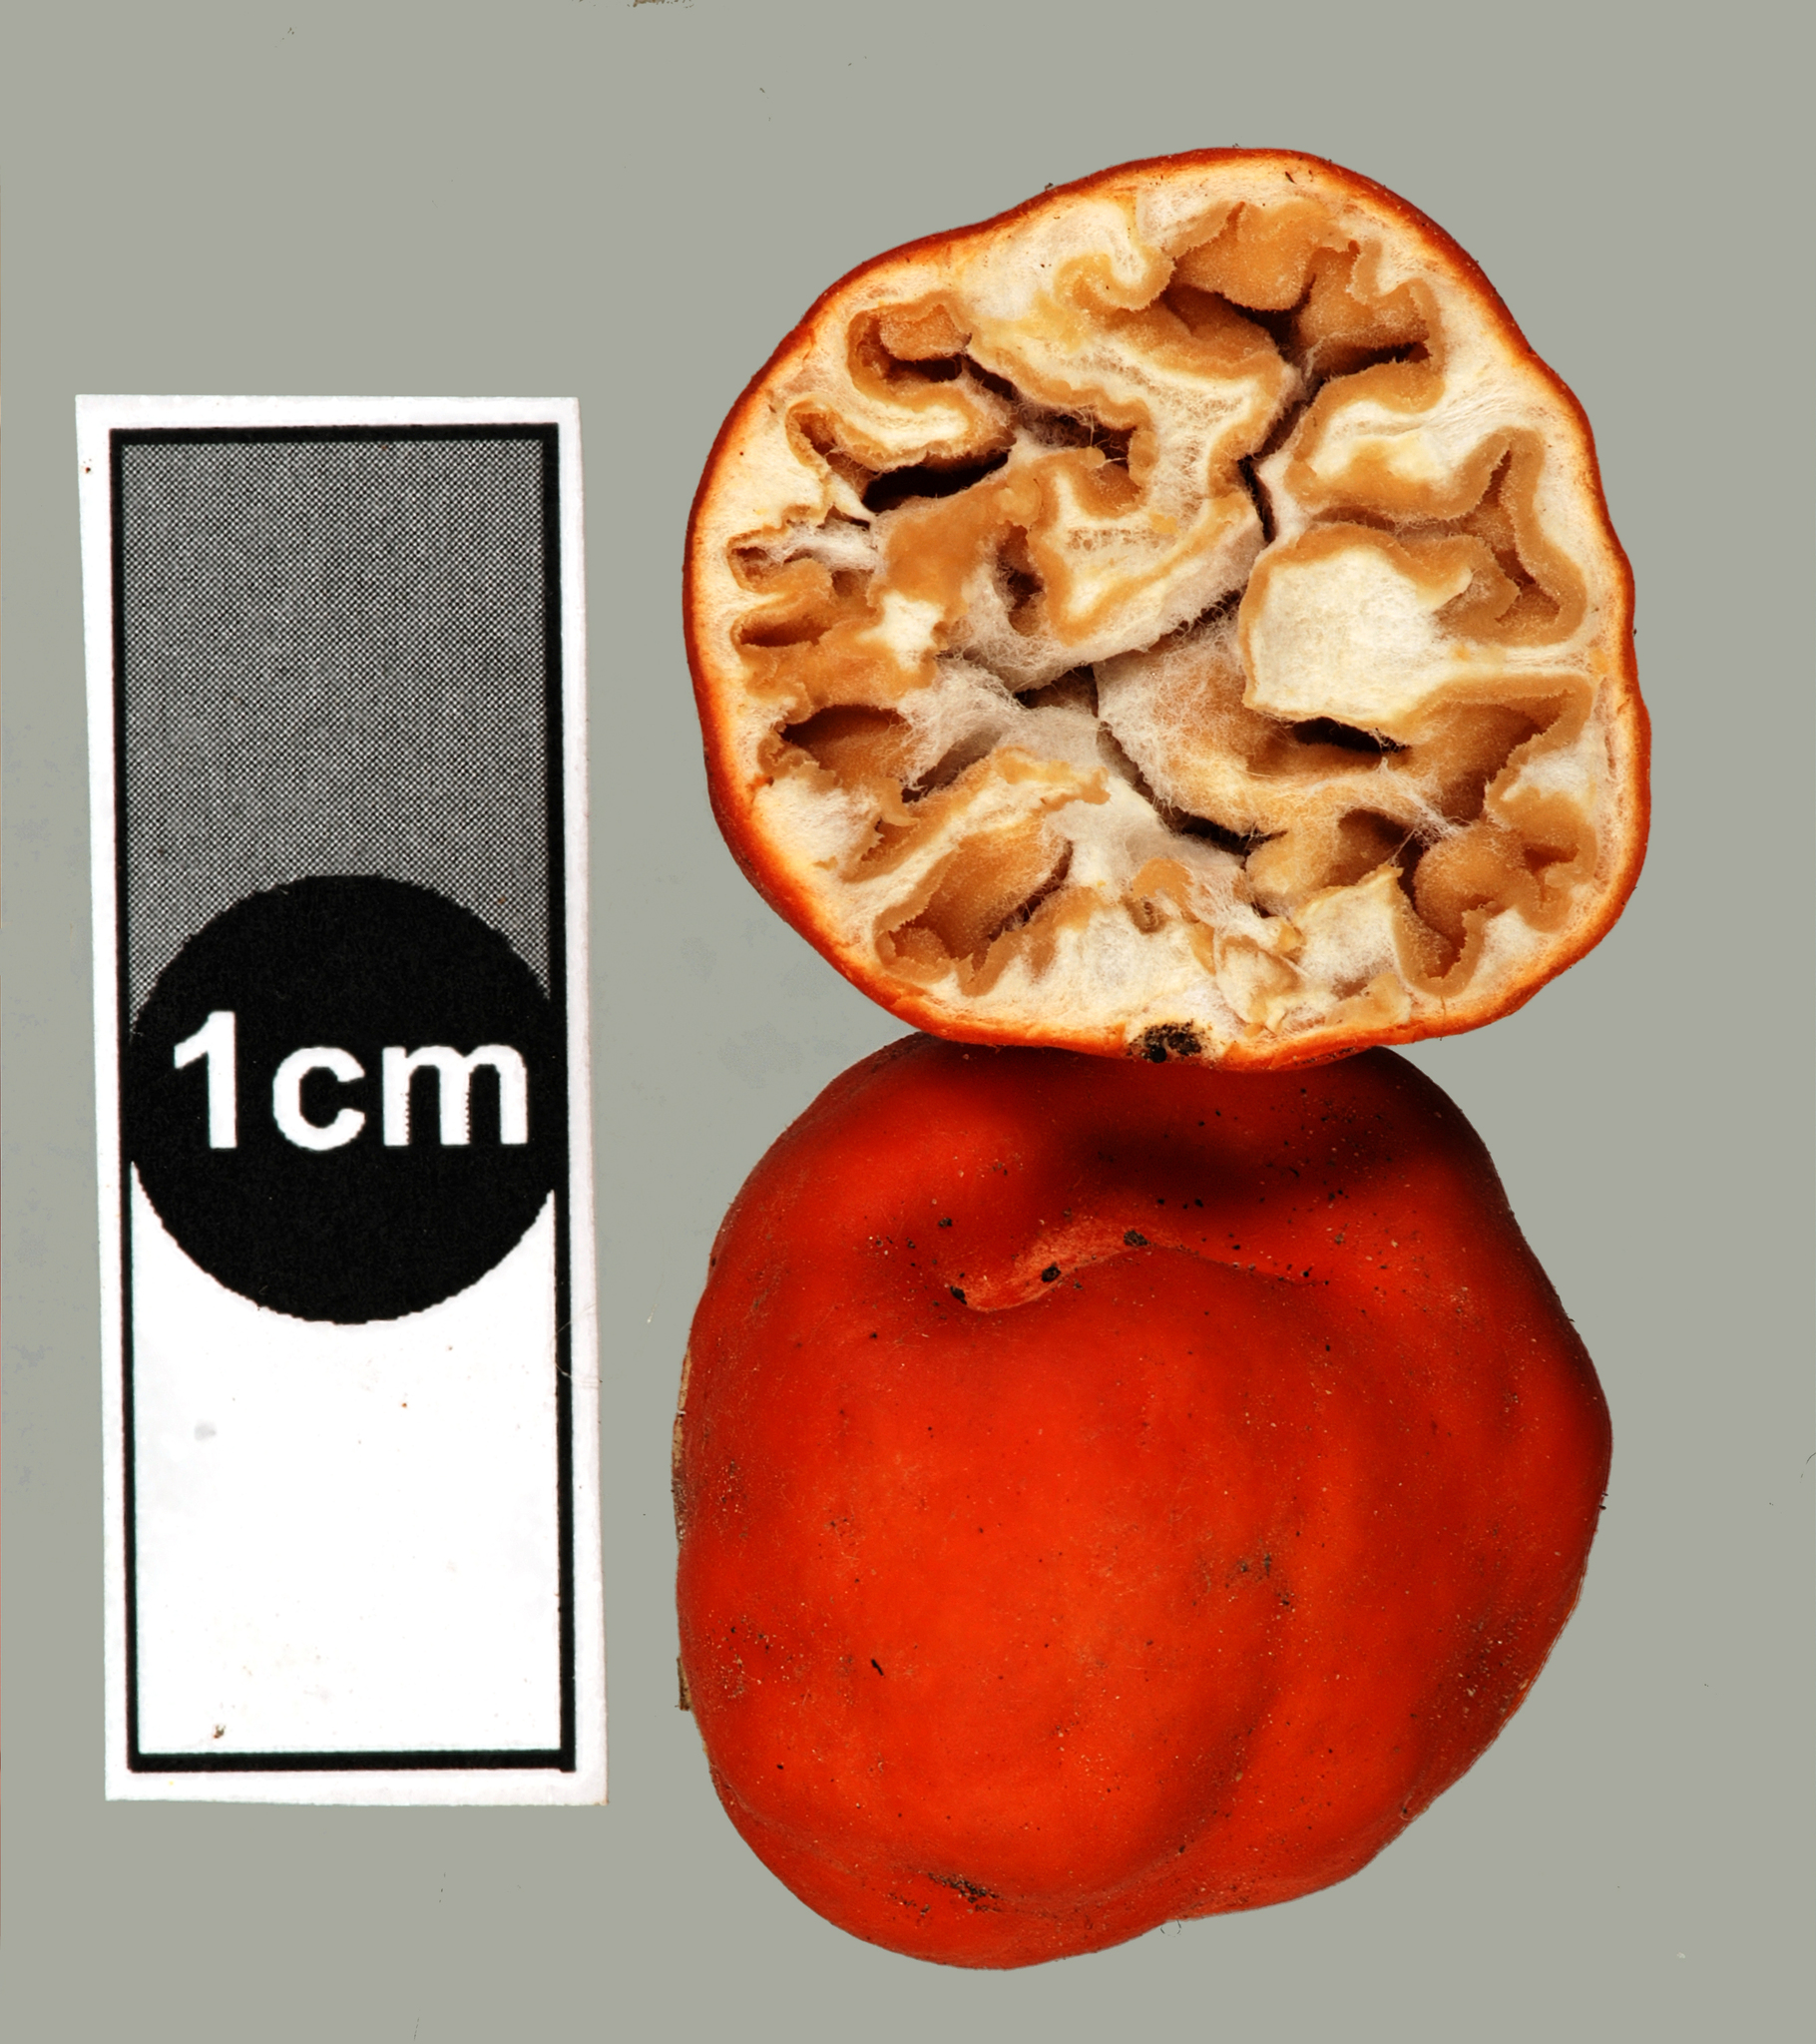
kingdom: Fungi
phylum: Ascomycota
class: Pezizomycetes
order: Pezizales
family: Pyronemataceae
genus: Paurocotylis
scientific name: Paurocotylis pila
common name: Scarlet berry truffle
